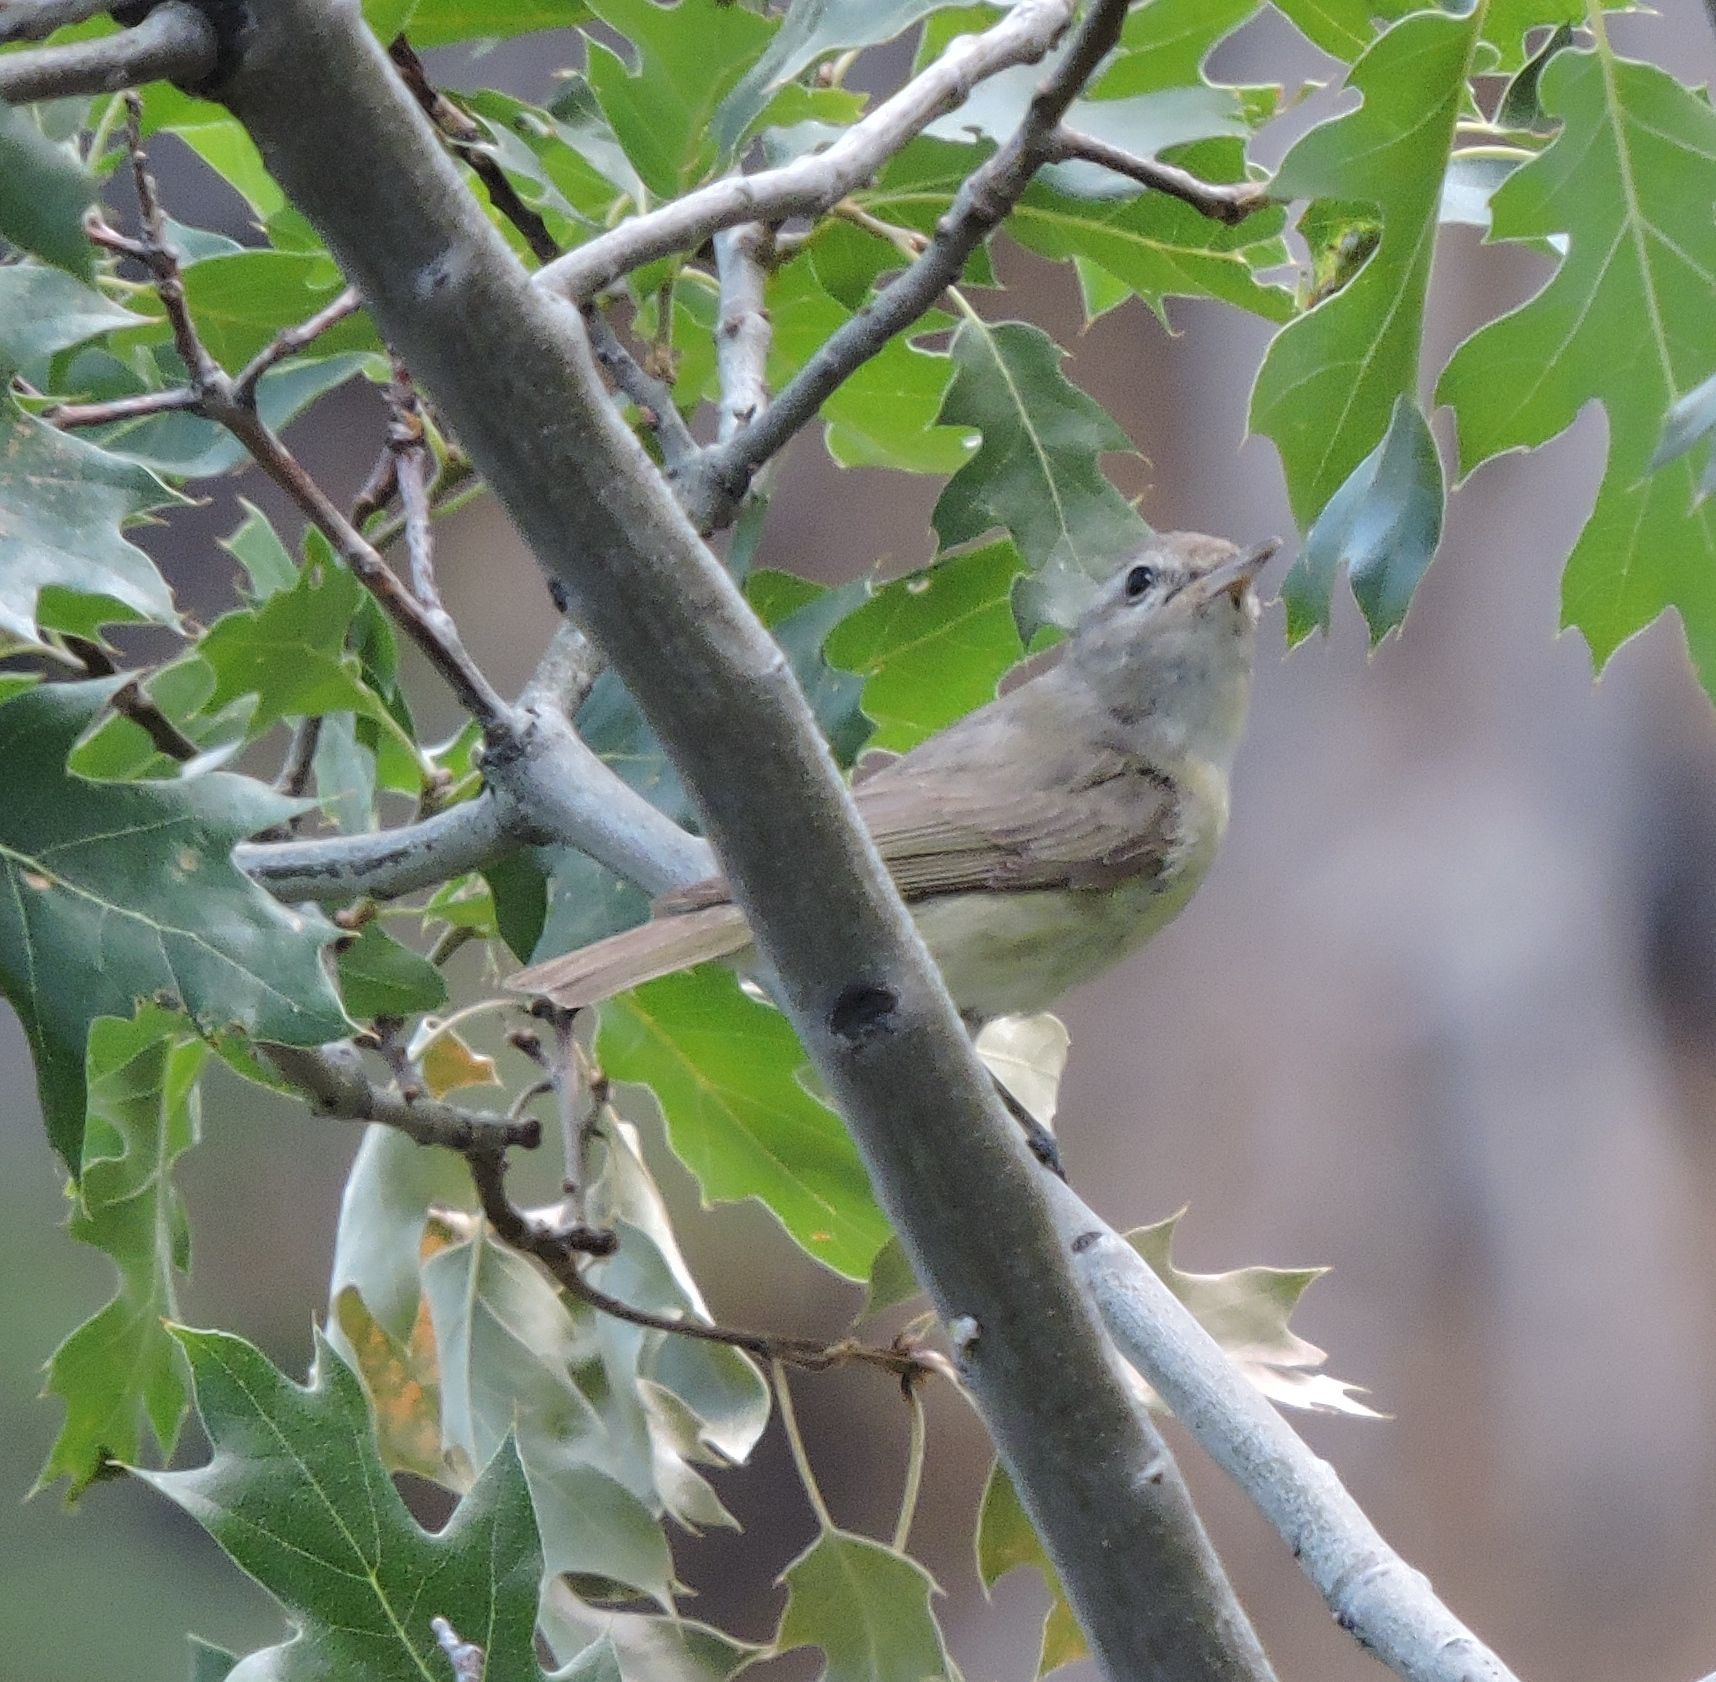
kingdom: Animalia
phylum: Chordata
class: Aves
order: Passeriformes
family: Vireonidae
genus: Vireo
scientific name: Vireo gilvus
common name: Warbling vireo
